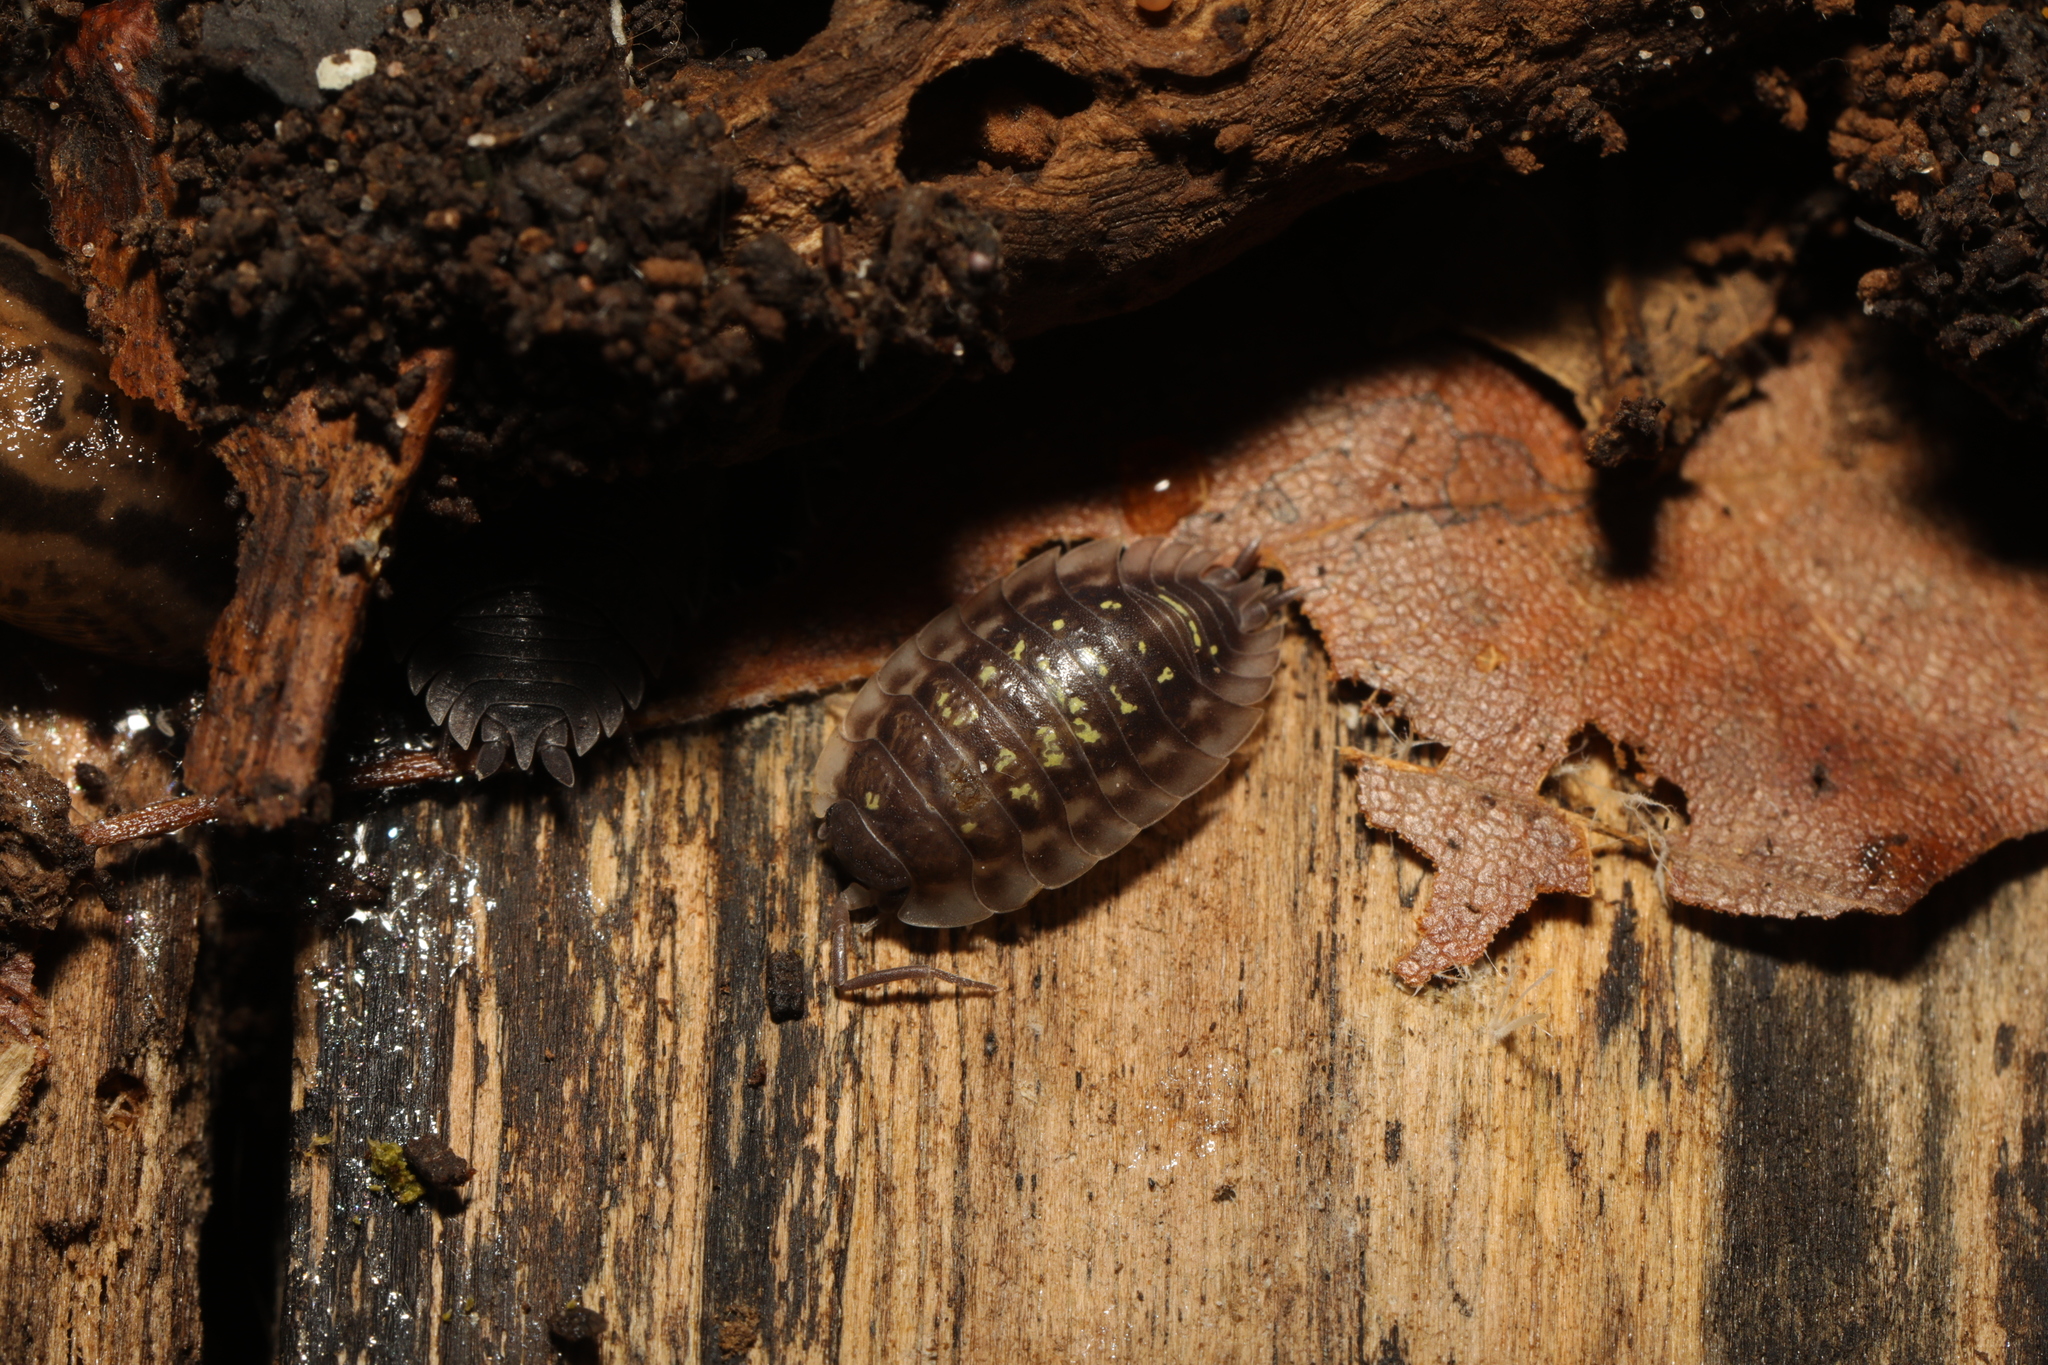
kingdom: Animalia
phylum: Arthropoda
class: Malacostraca
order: Isopoda
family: Oniscidae
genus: Oniscus
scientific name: Oniscus asellus
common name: Common shiny woodlouse
